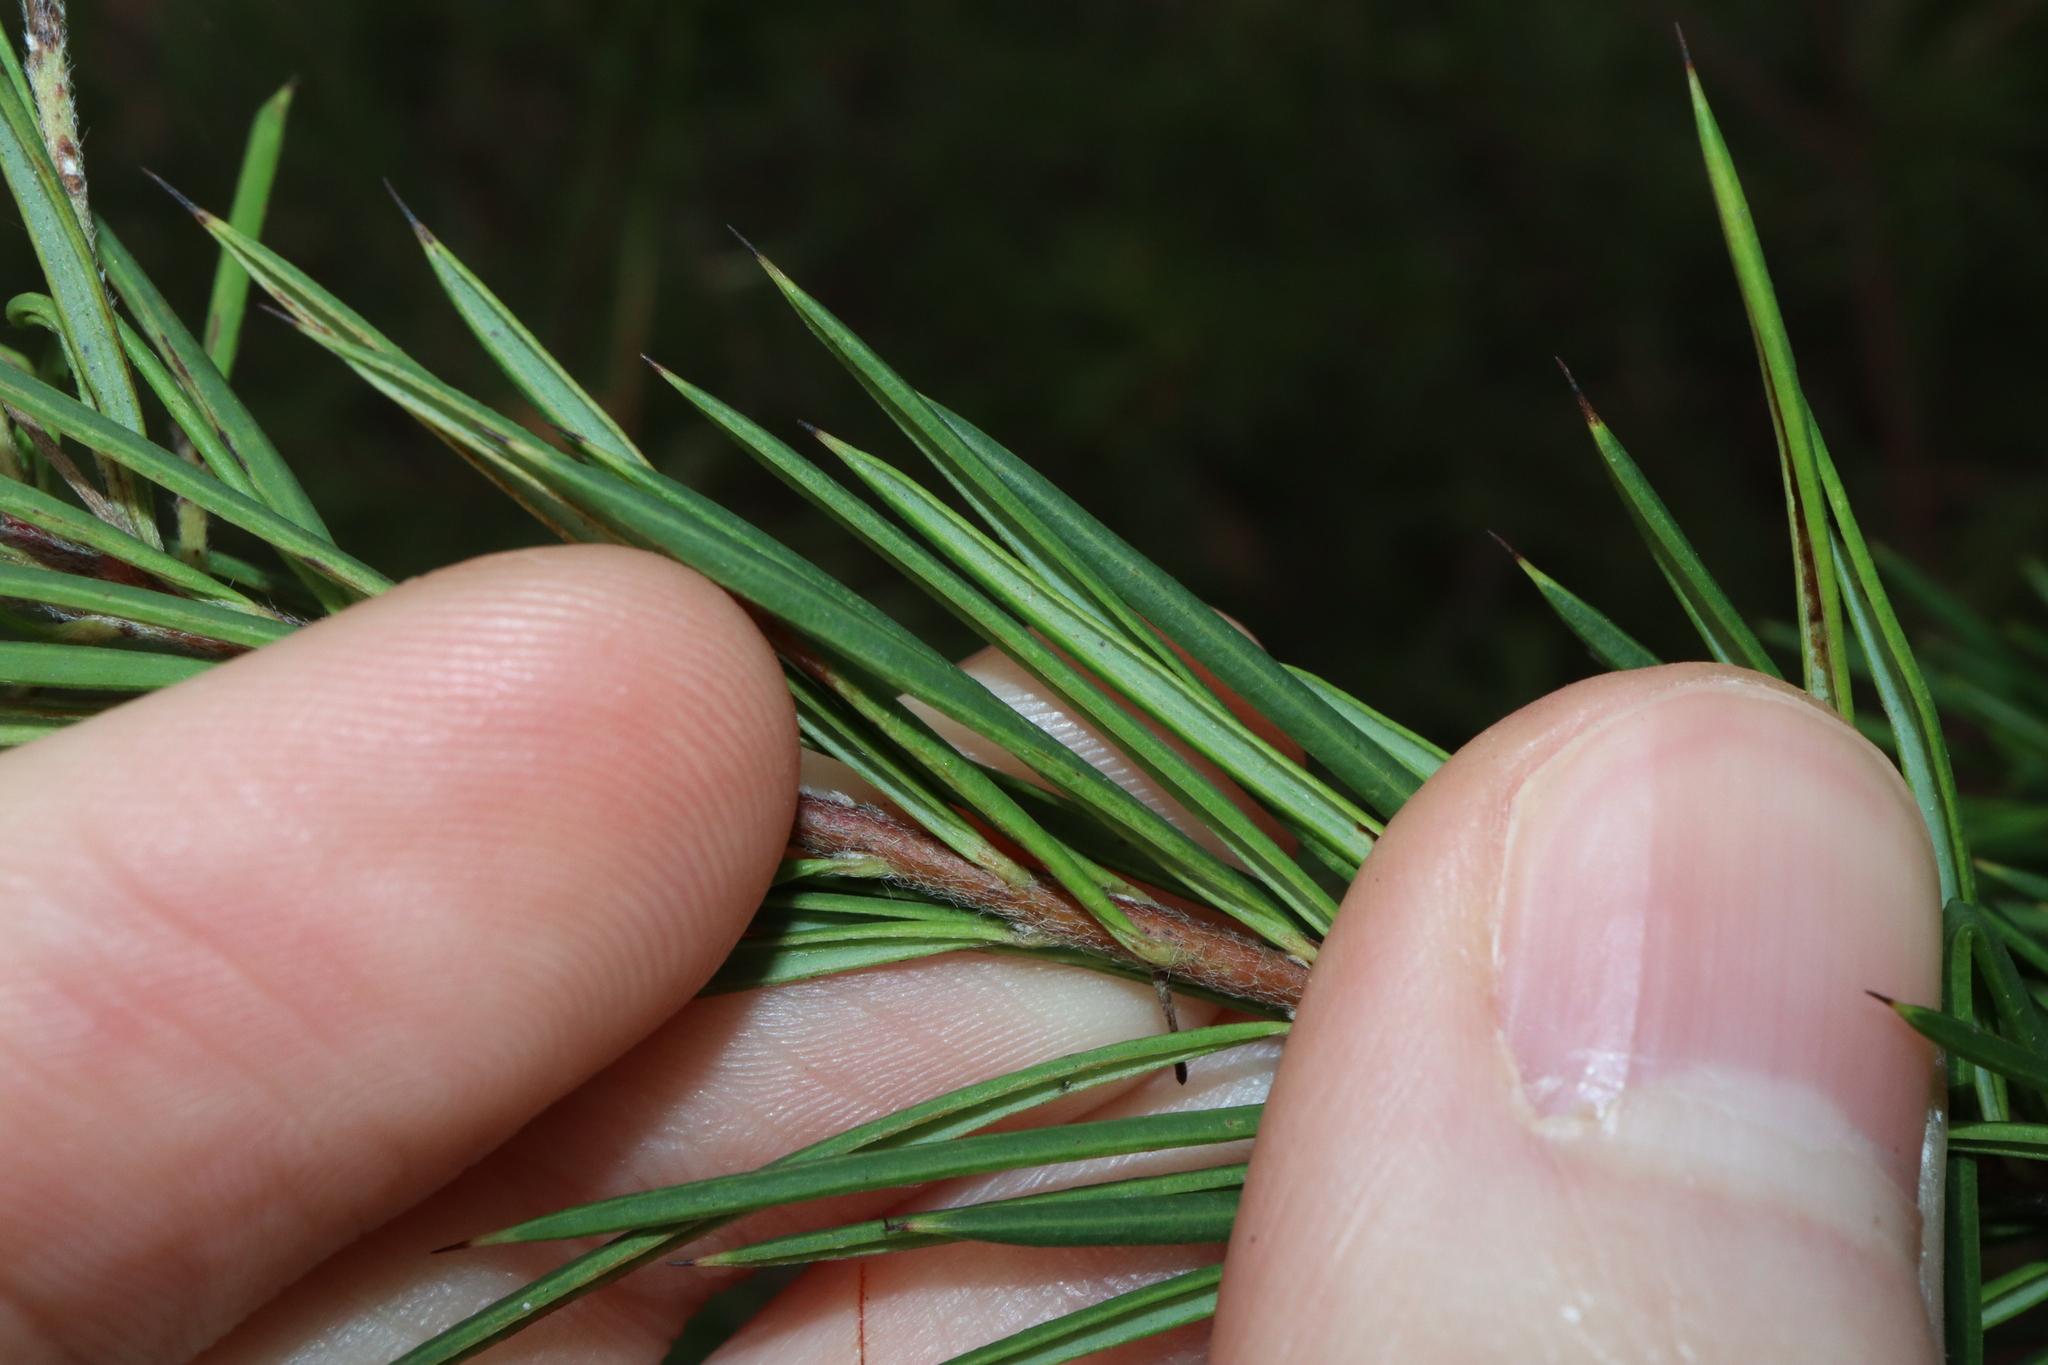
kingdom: Plantae
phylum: Tracheophyta
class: Magnoliopsida
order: Proteales
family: Proteaceae
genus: Grevillea
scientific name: Grevillea rosmarinifolia
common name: Rosemary grevillea
